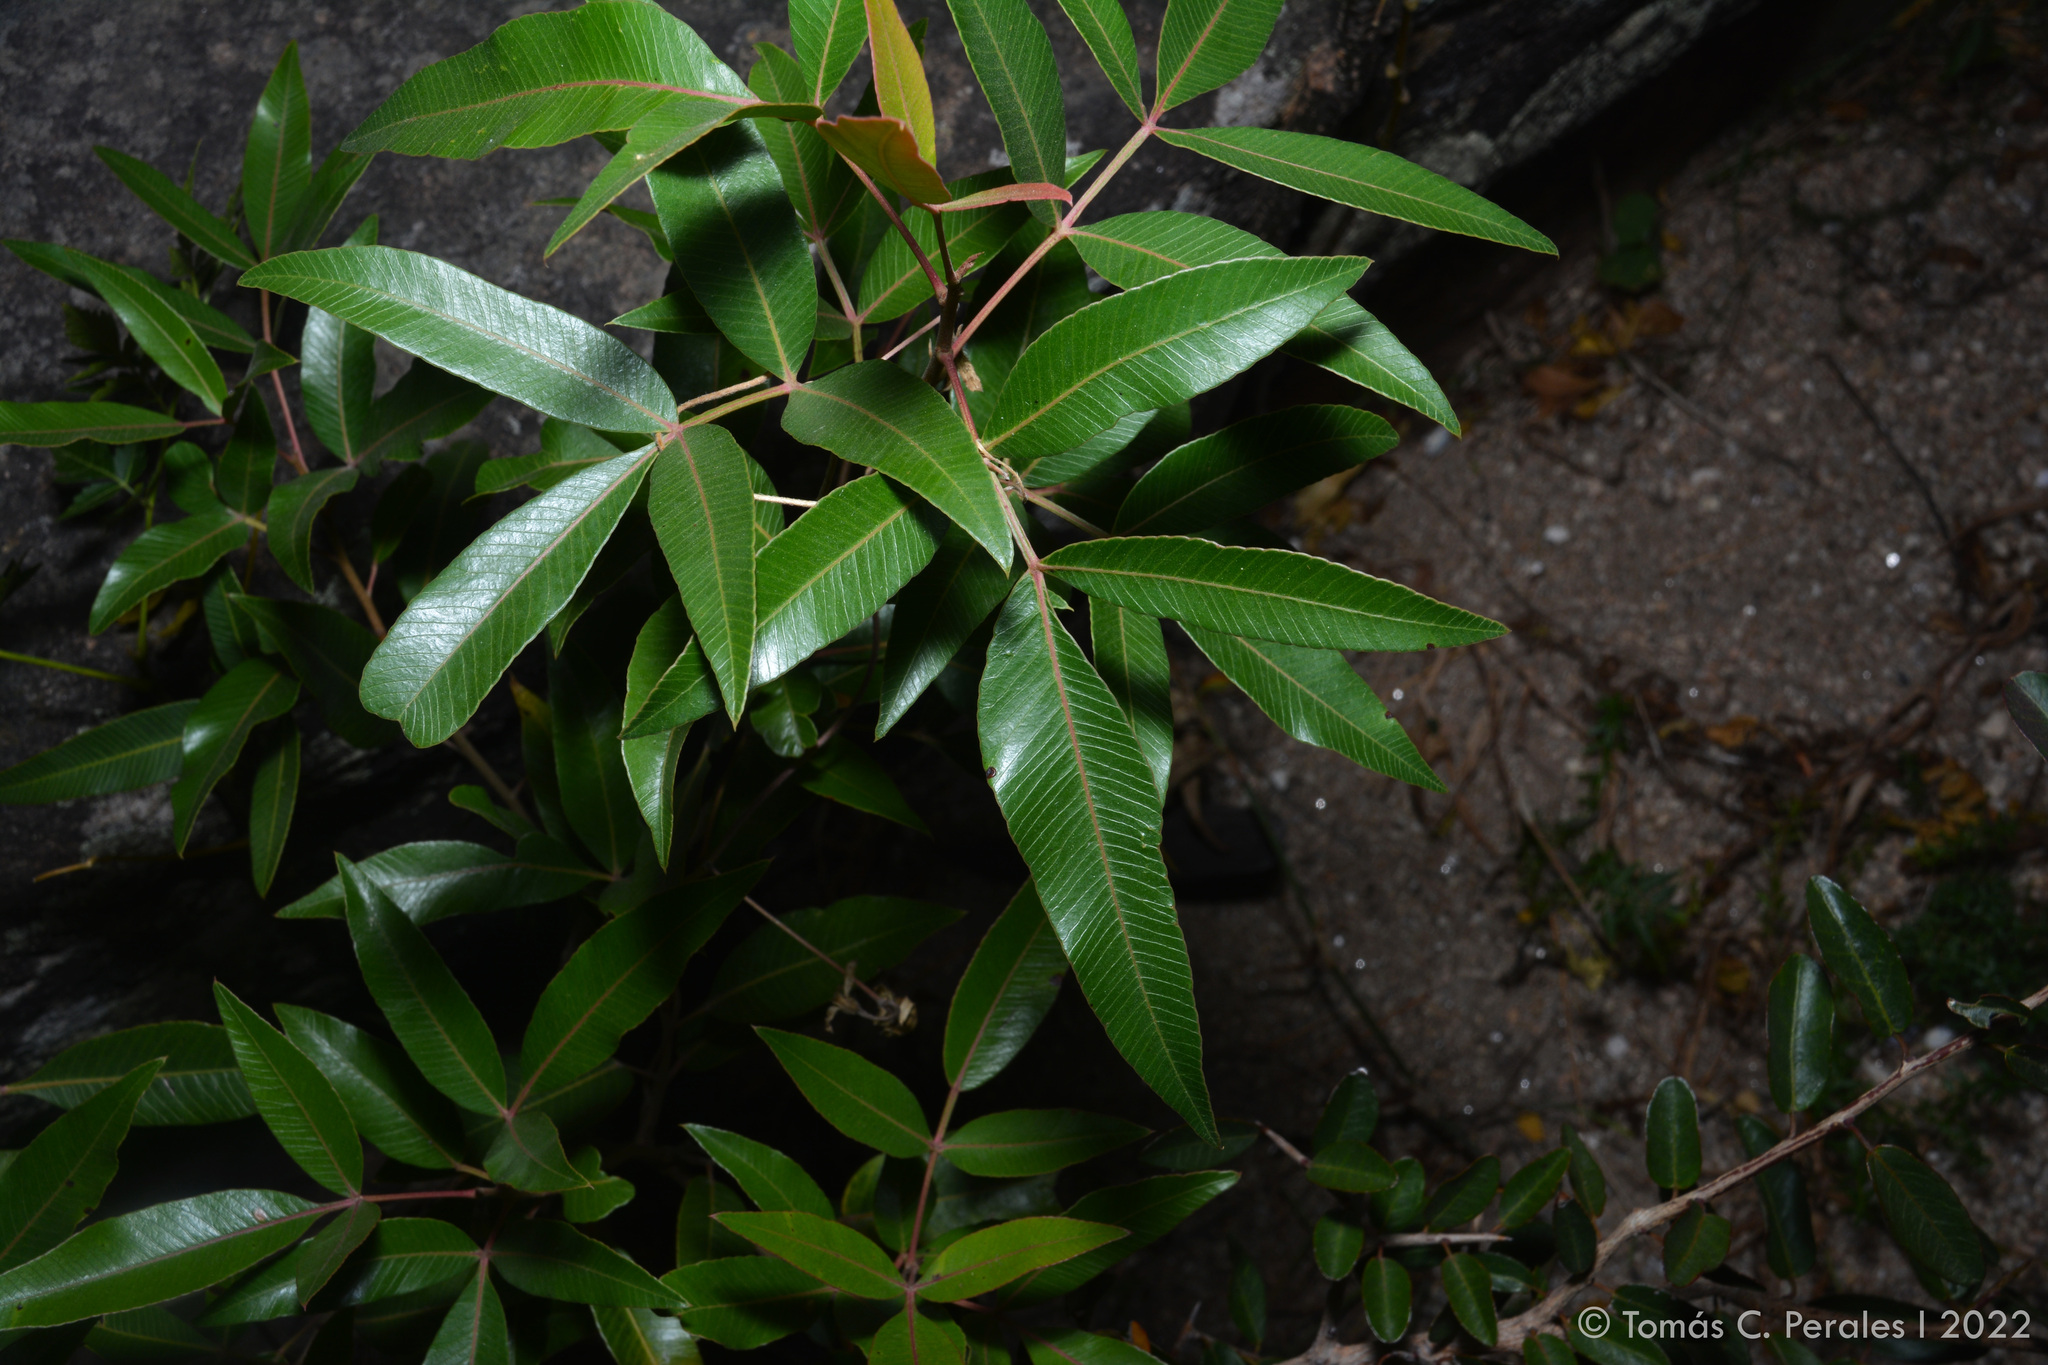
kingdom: Plantae
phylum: Tracheophyta
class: Magnoliopsida
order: Sapindales
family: Anacardiaceae
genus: Lithraea
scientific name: Lithraea molleoides
